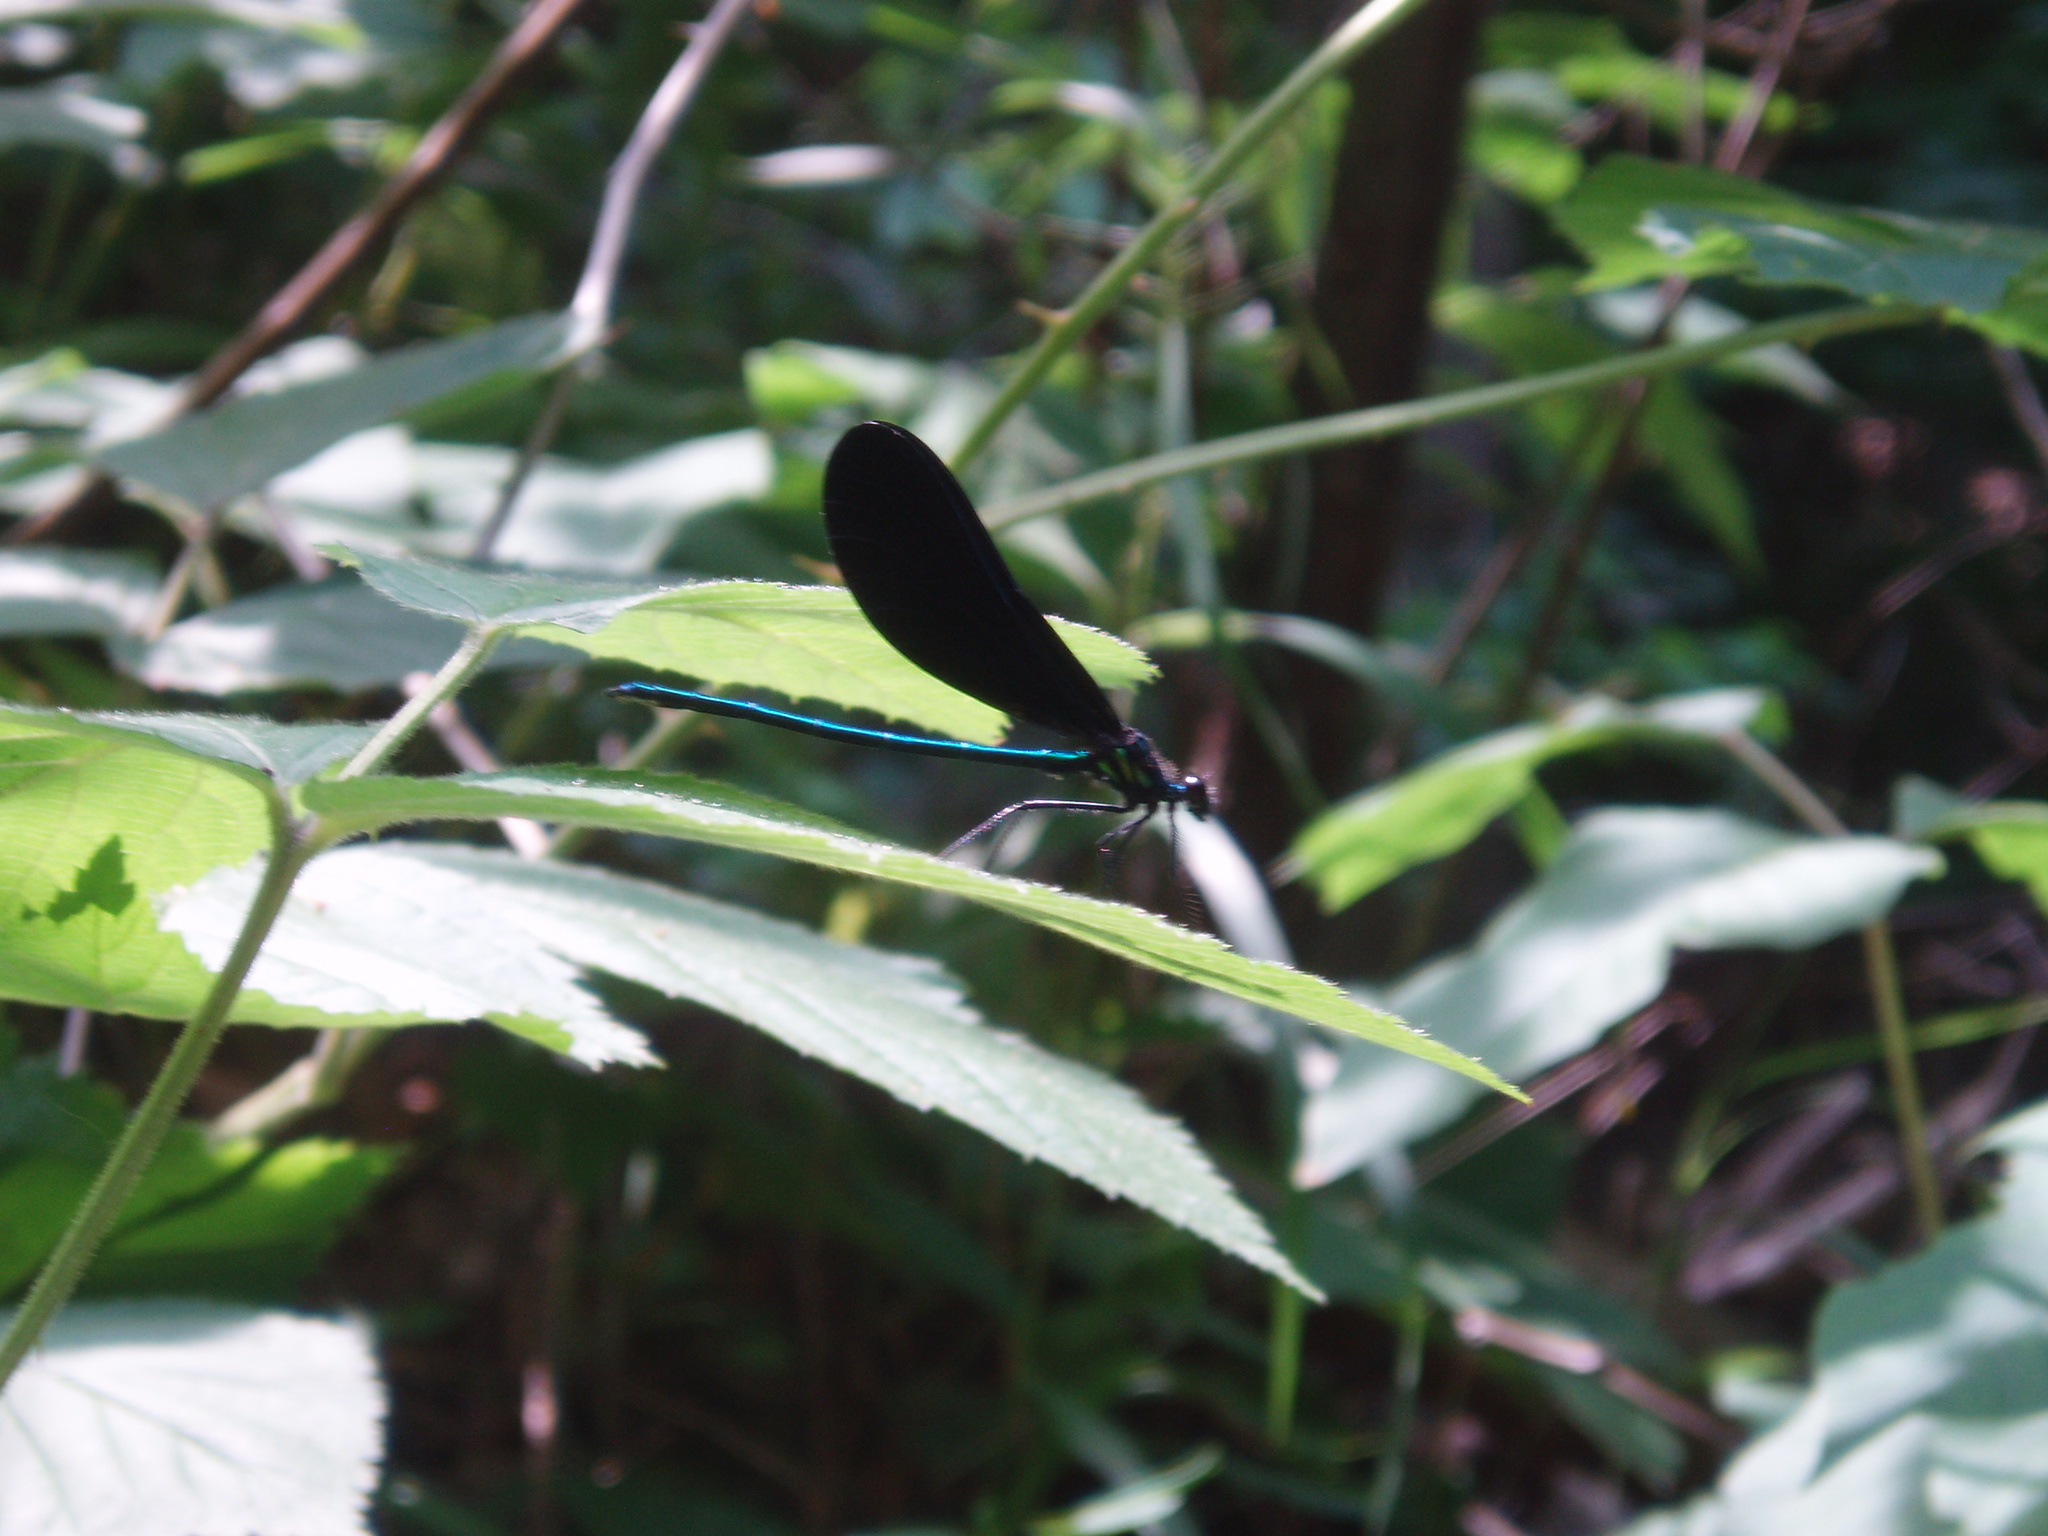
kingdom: Animalia
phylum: Arthropoda
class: Insecta
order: Odonata
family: Calopterygidae
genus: Calopteryx
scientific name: Calopteryx maculata
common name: Ebony jewelwing
